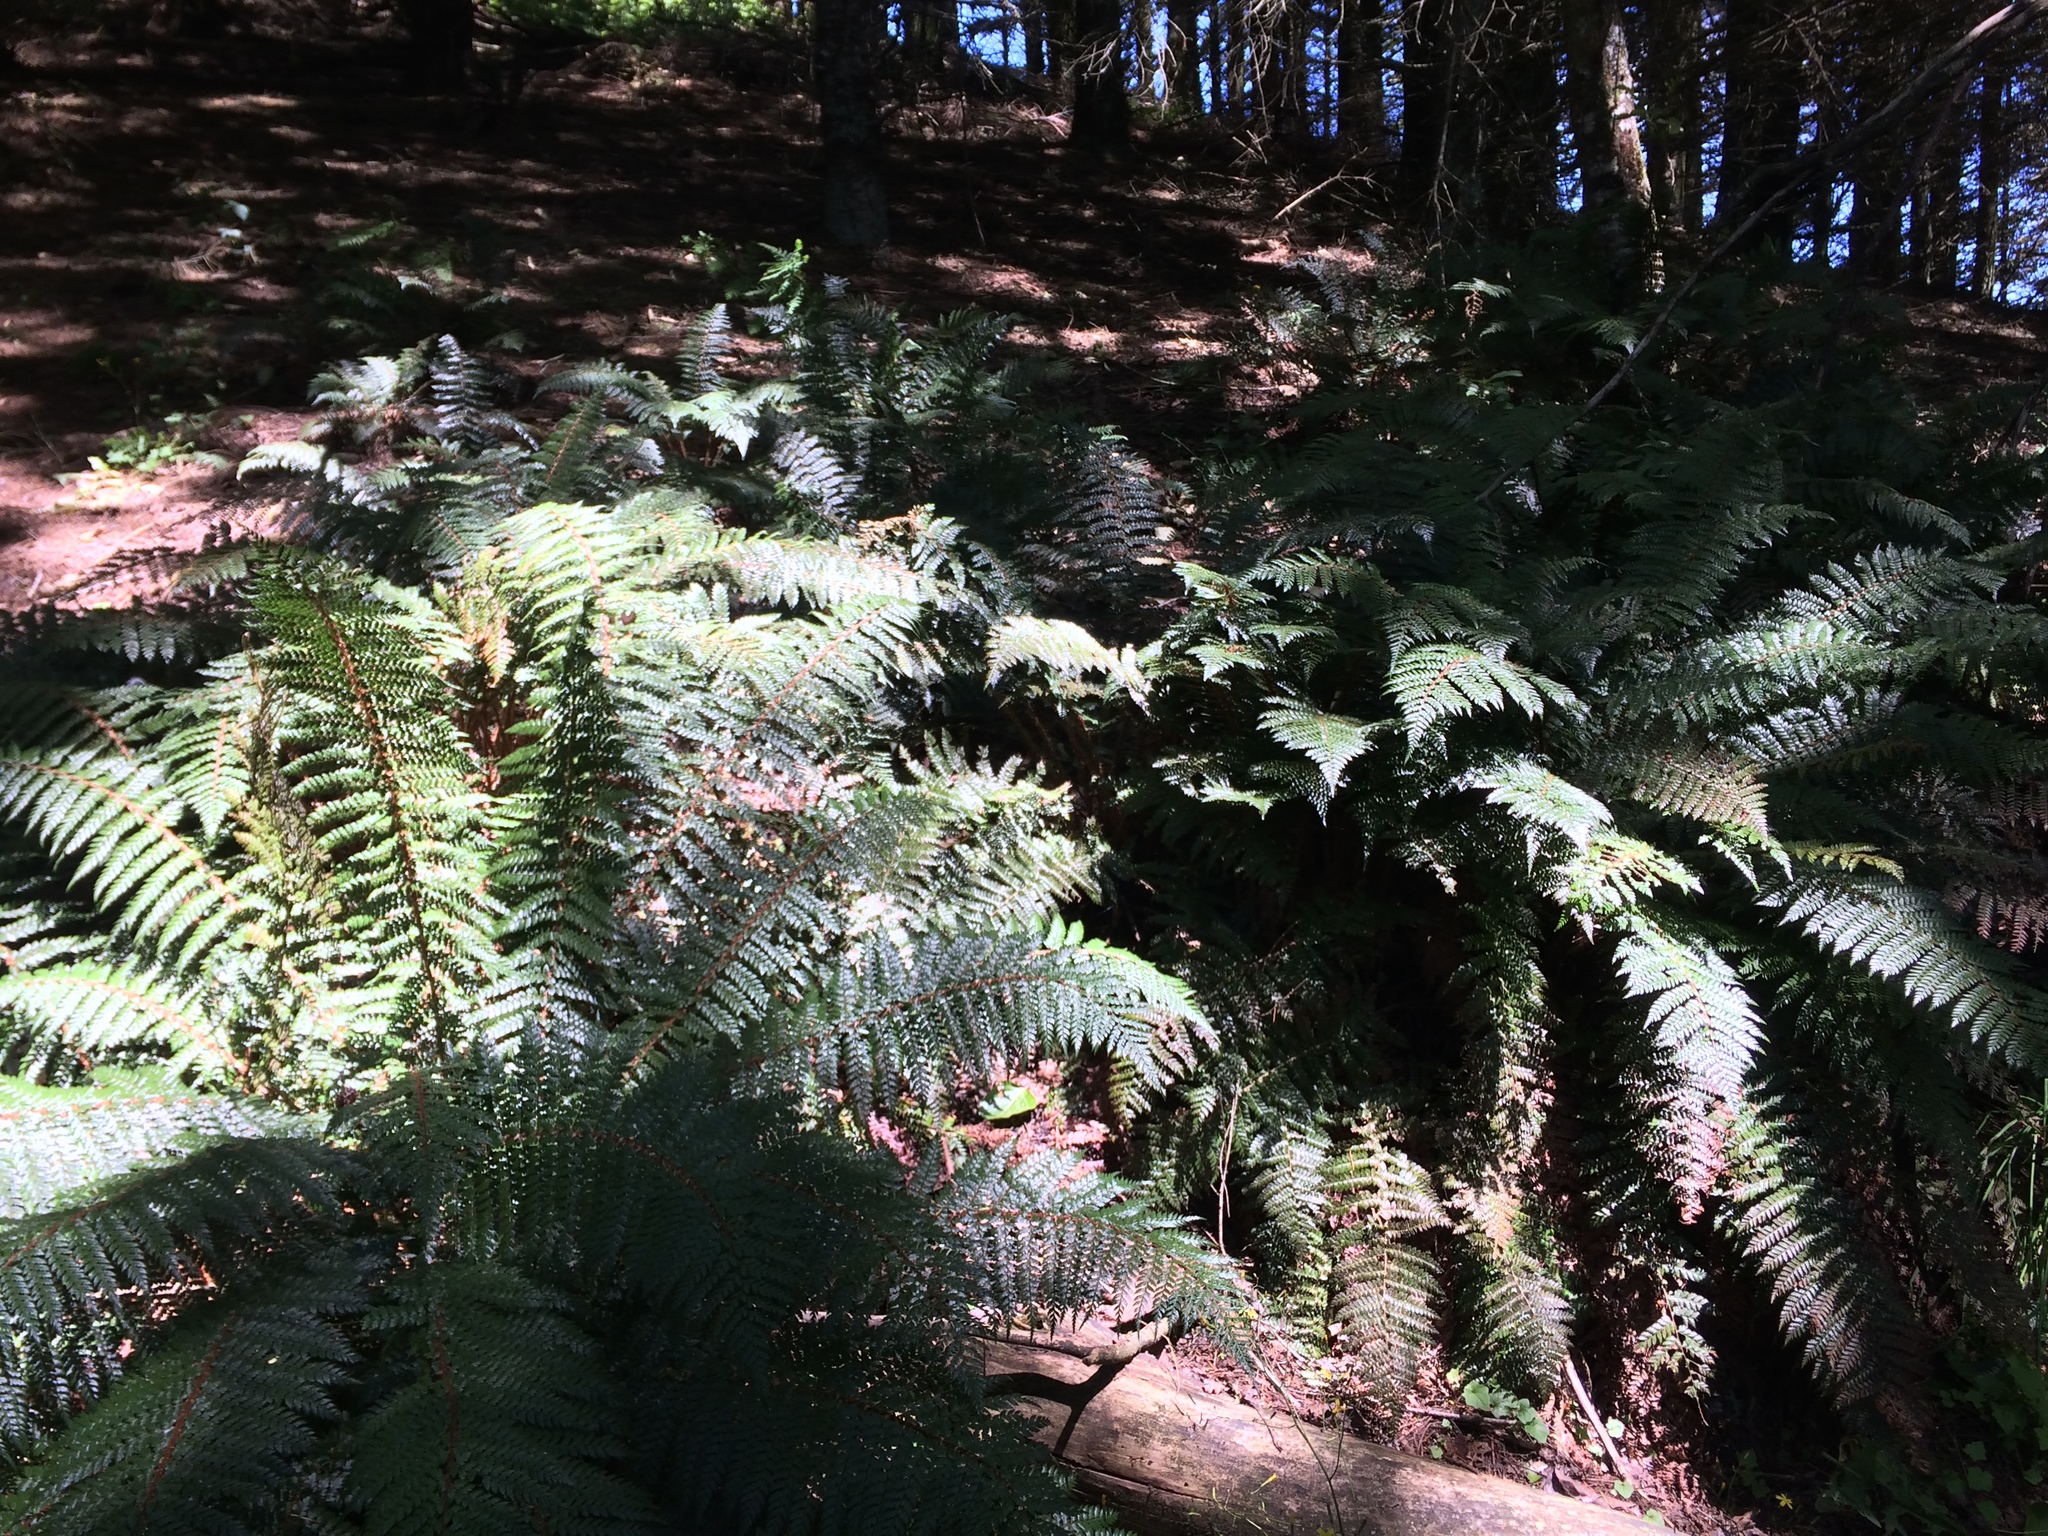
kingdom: Plantae
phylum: Tracheophyta
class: Polypodiopsida
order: Polypodiales
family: Dryopteridaceae
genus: Polystichum
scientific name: Polystichum vestitum
